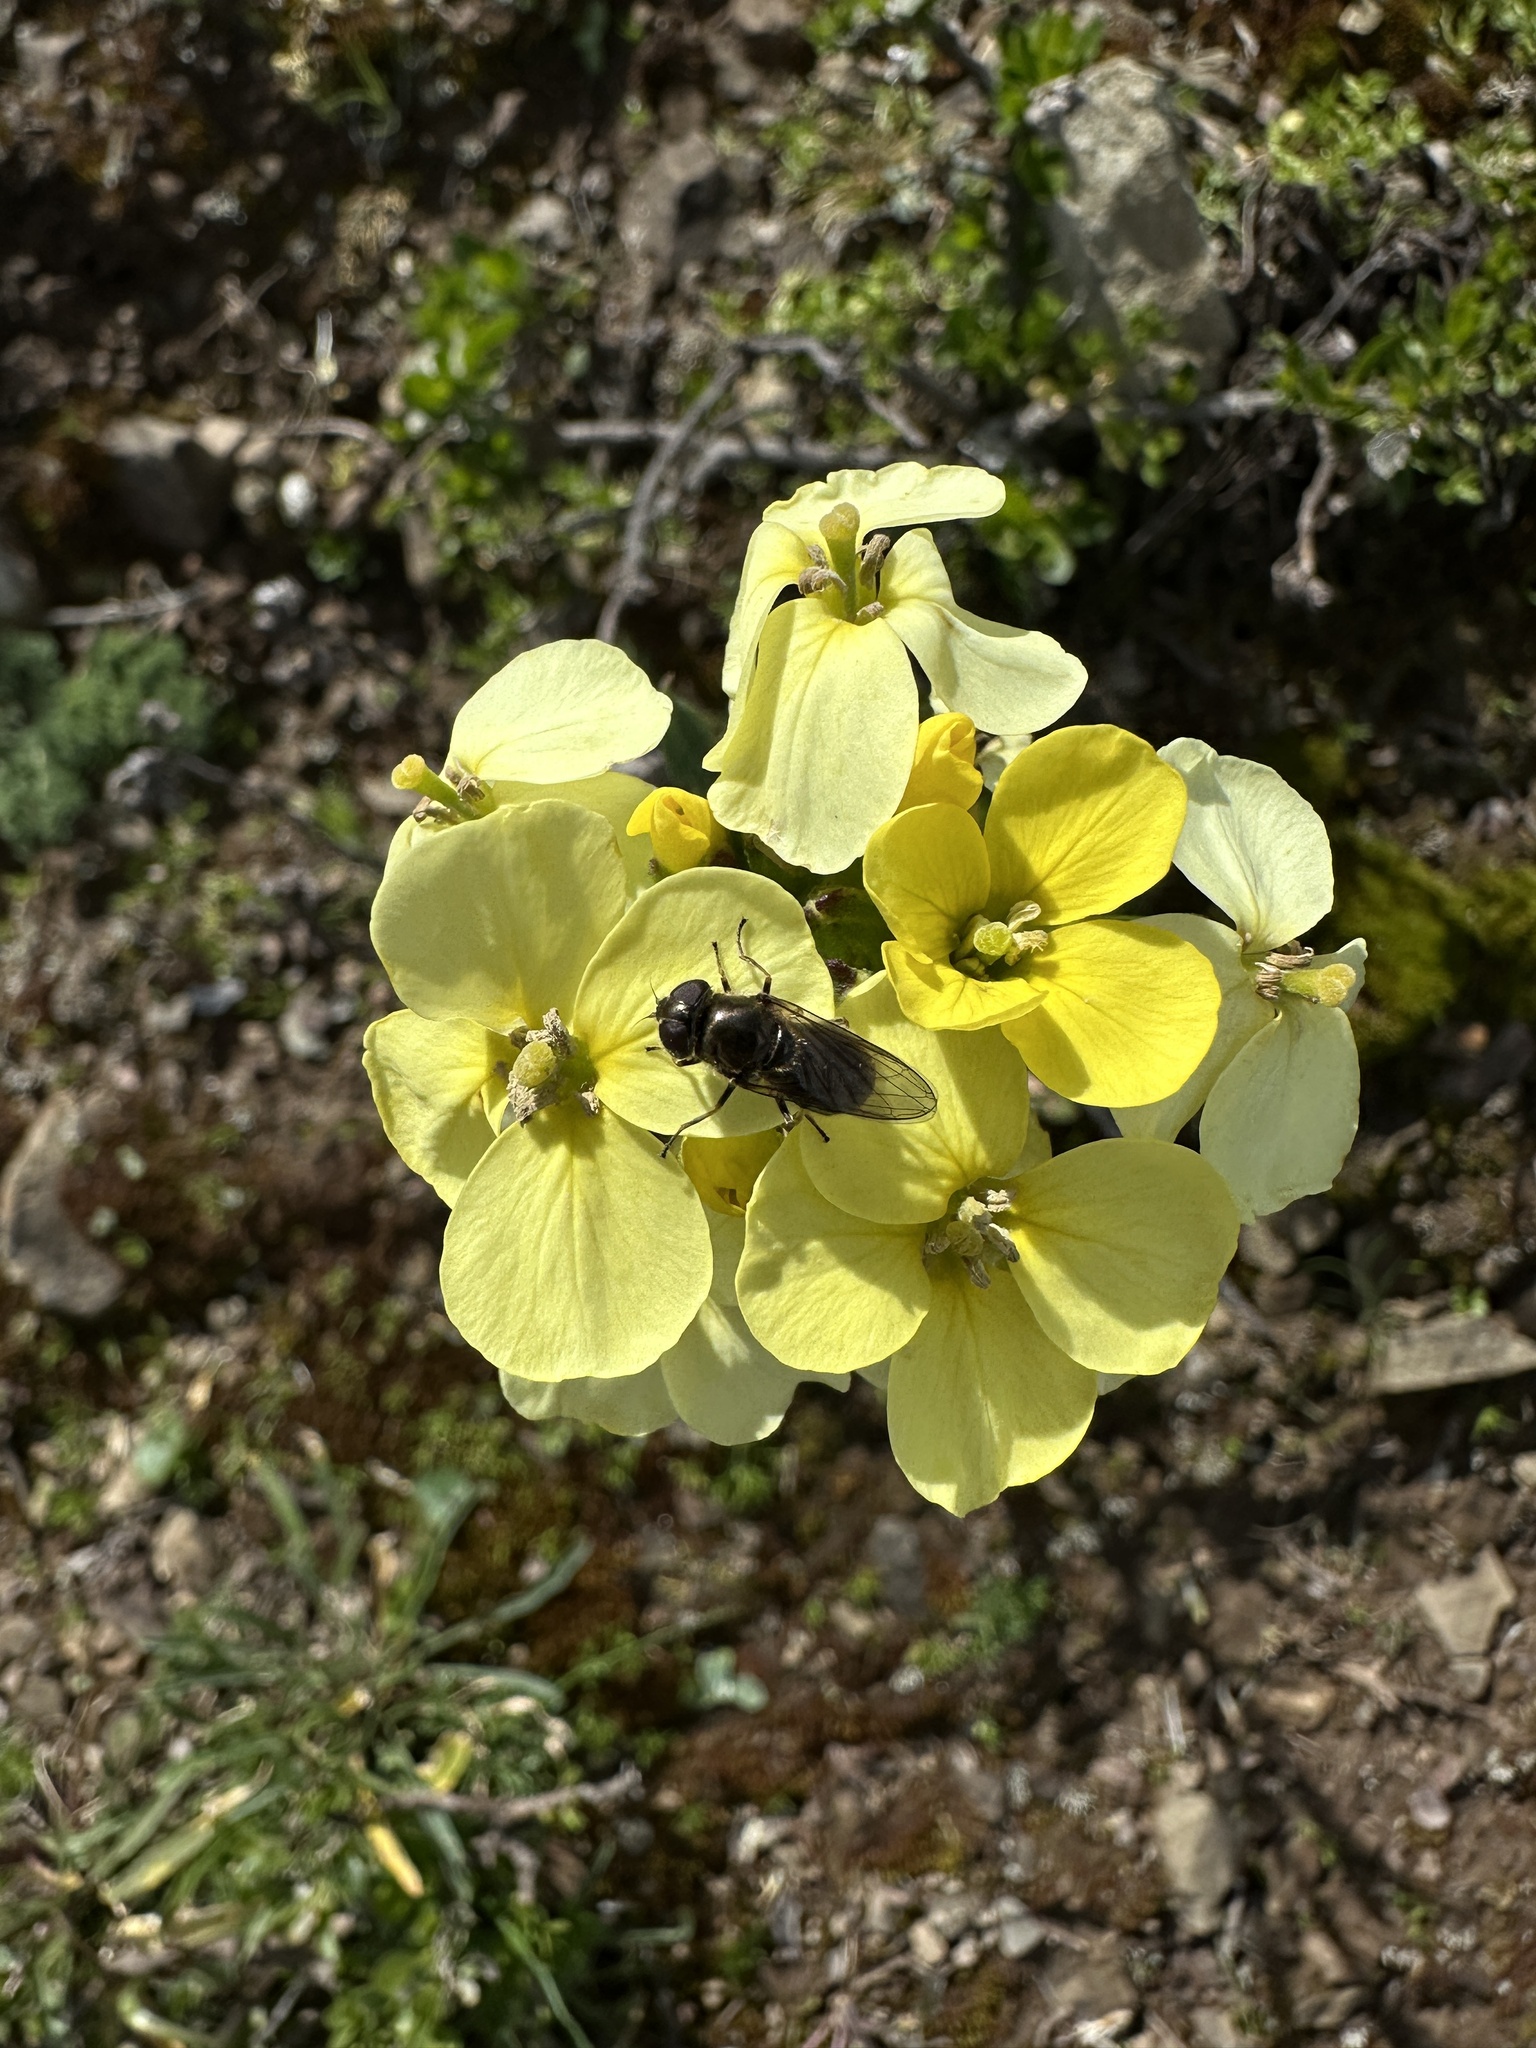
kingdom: Plantae
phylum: Tracheophyta
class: Magnoliopsida
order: Brassicales
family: Brassicaceae
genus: Erysimum
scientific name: Erysimum franciscanum
